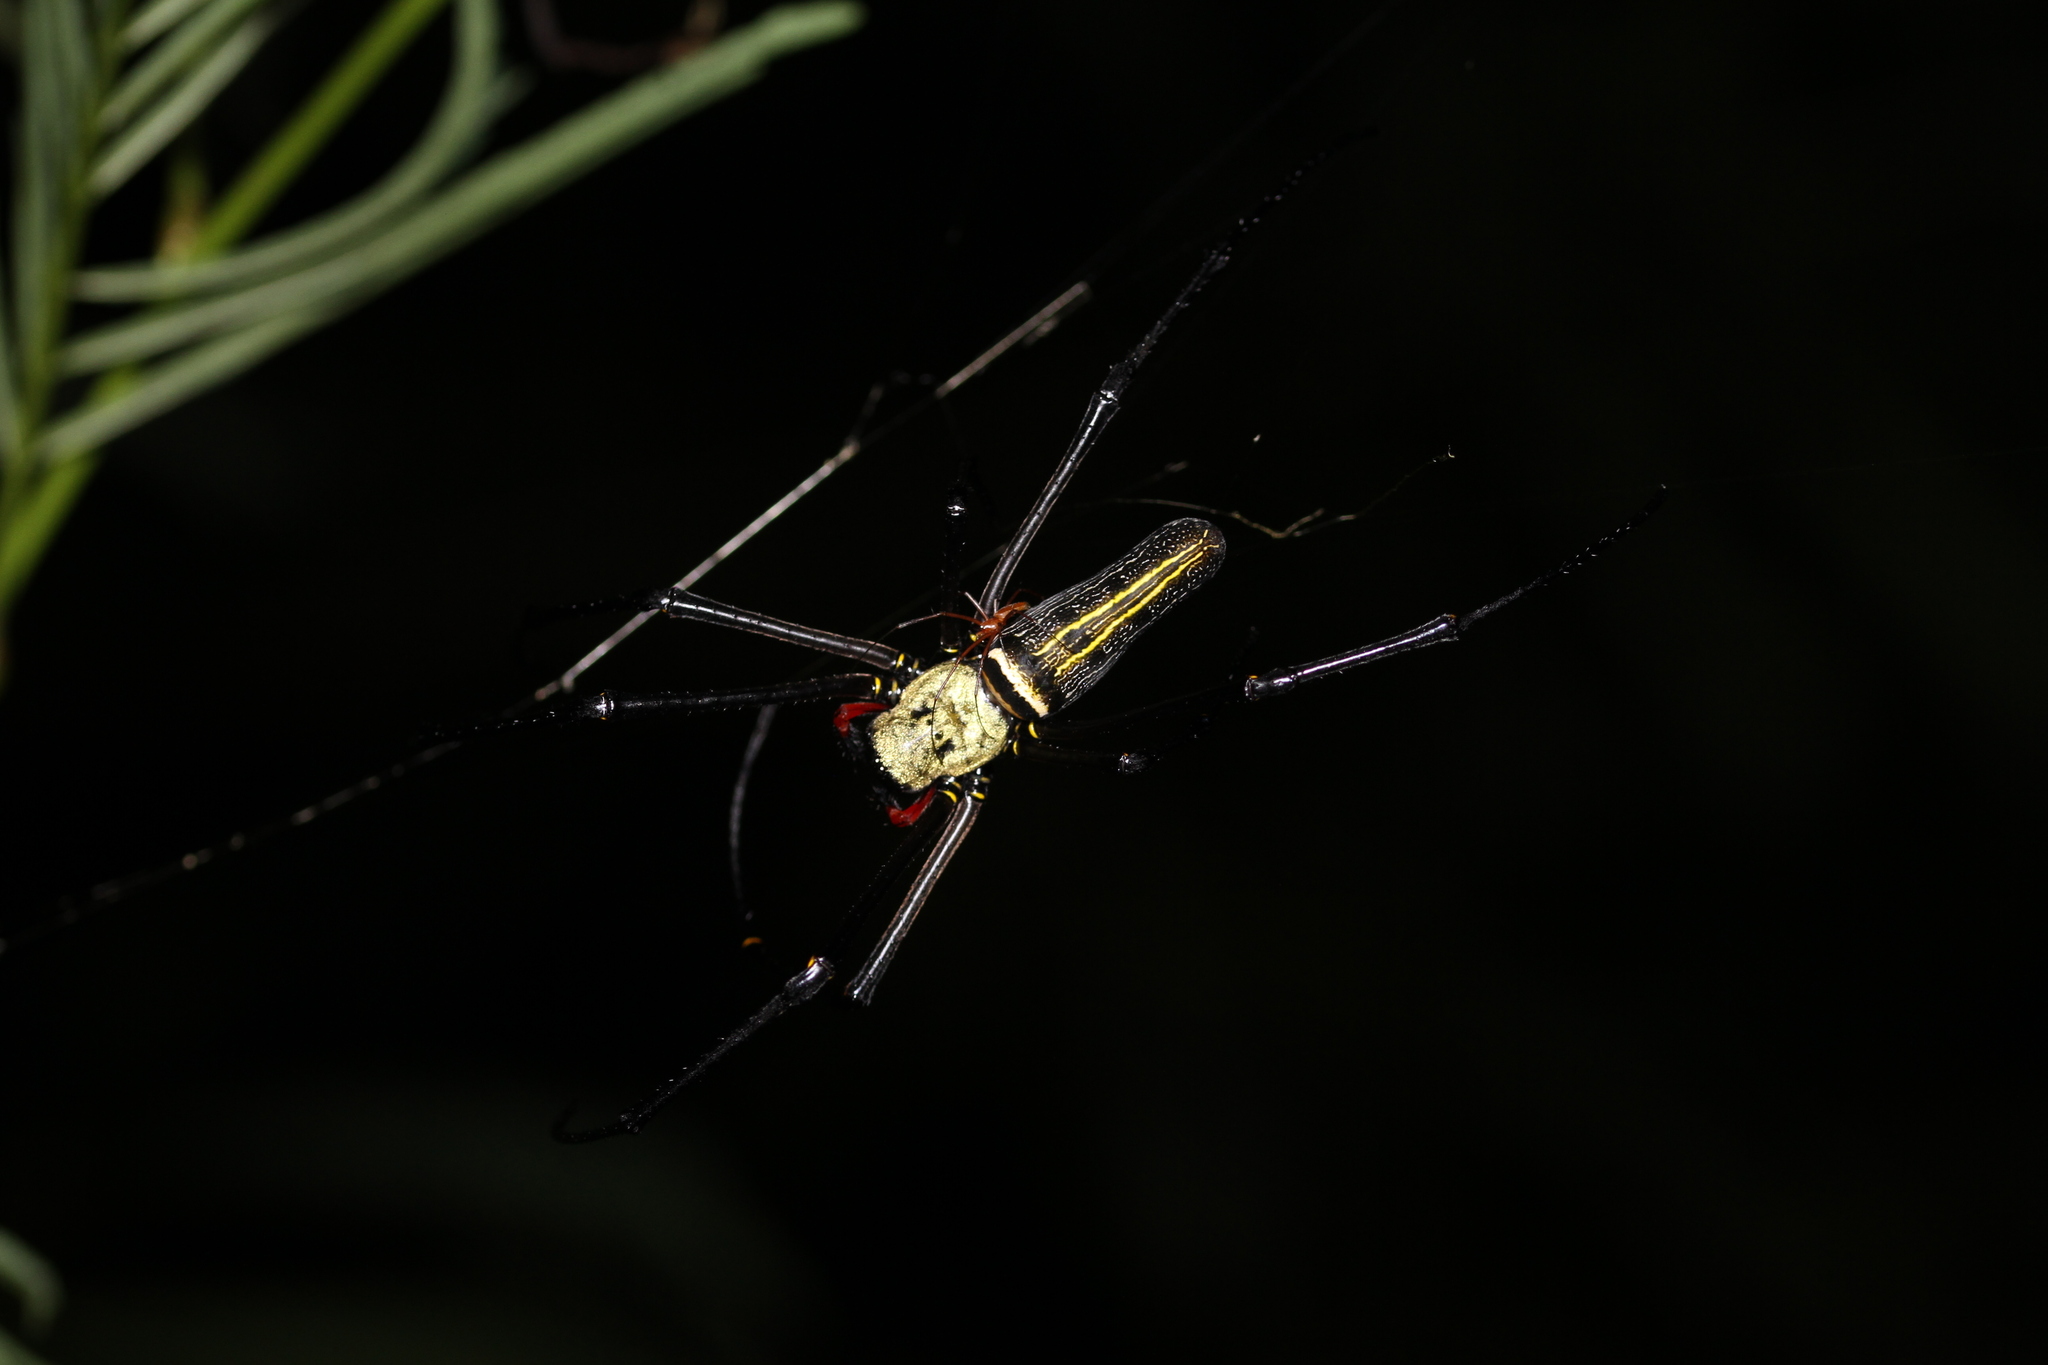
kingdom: Animalia
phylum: Arthropoda
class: Arachnida
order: Araneae
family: Araneidae
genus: Nephila
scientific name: Nephila pilipes
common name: Giant golden orb weaver
